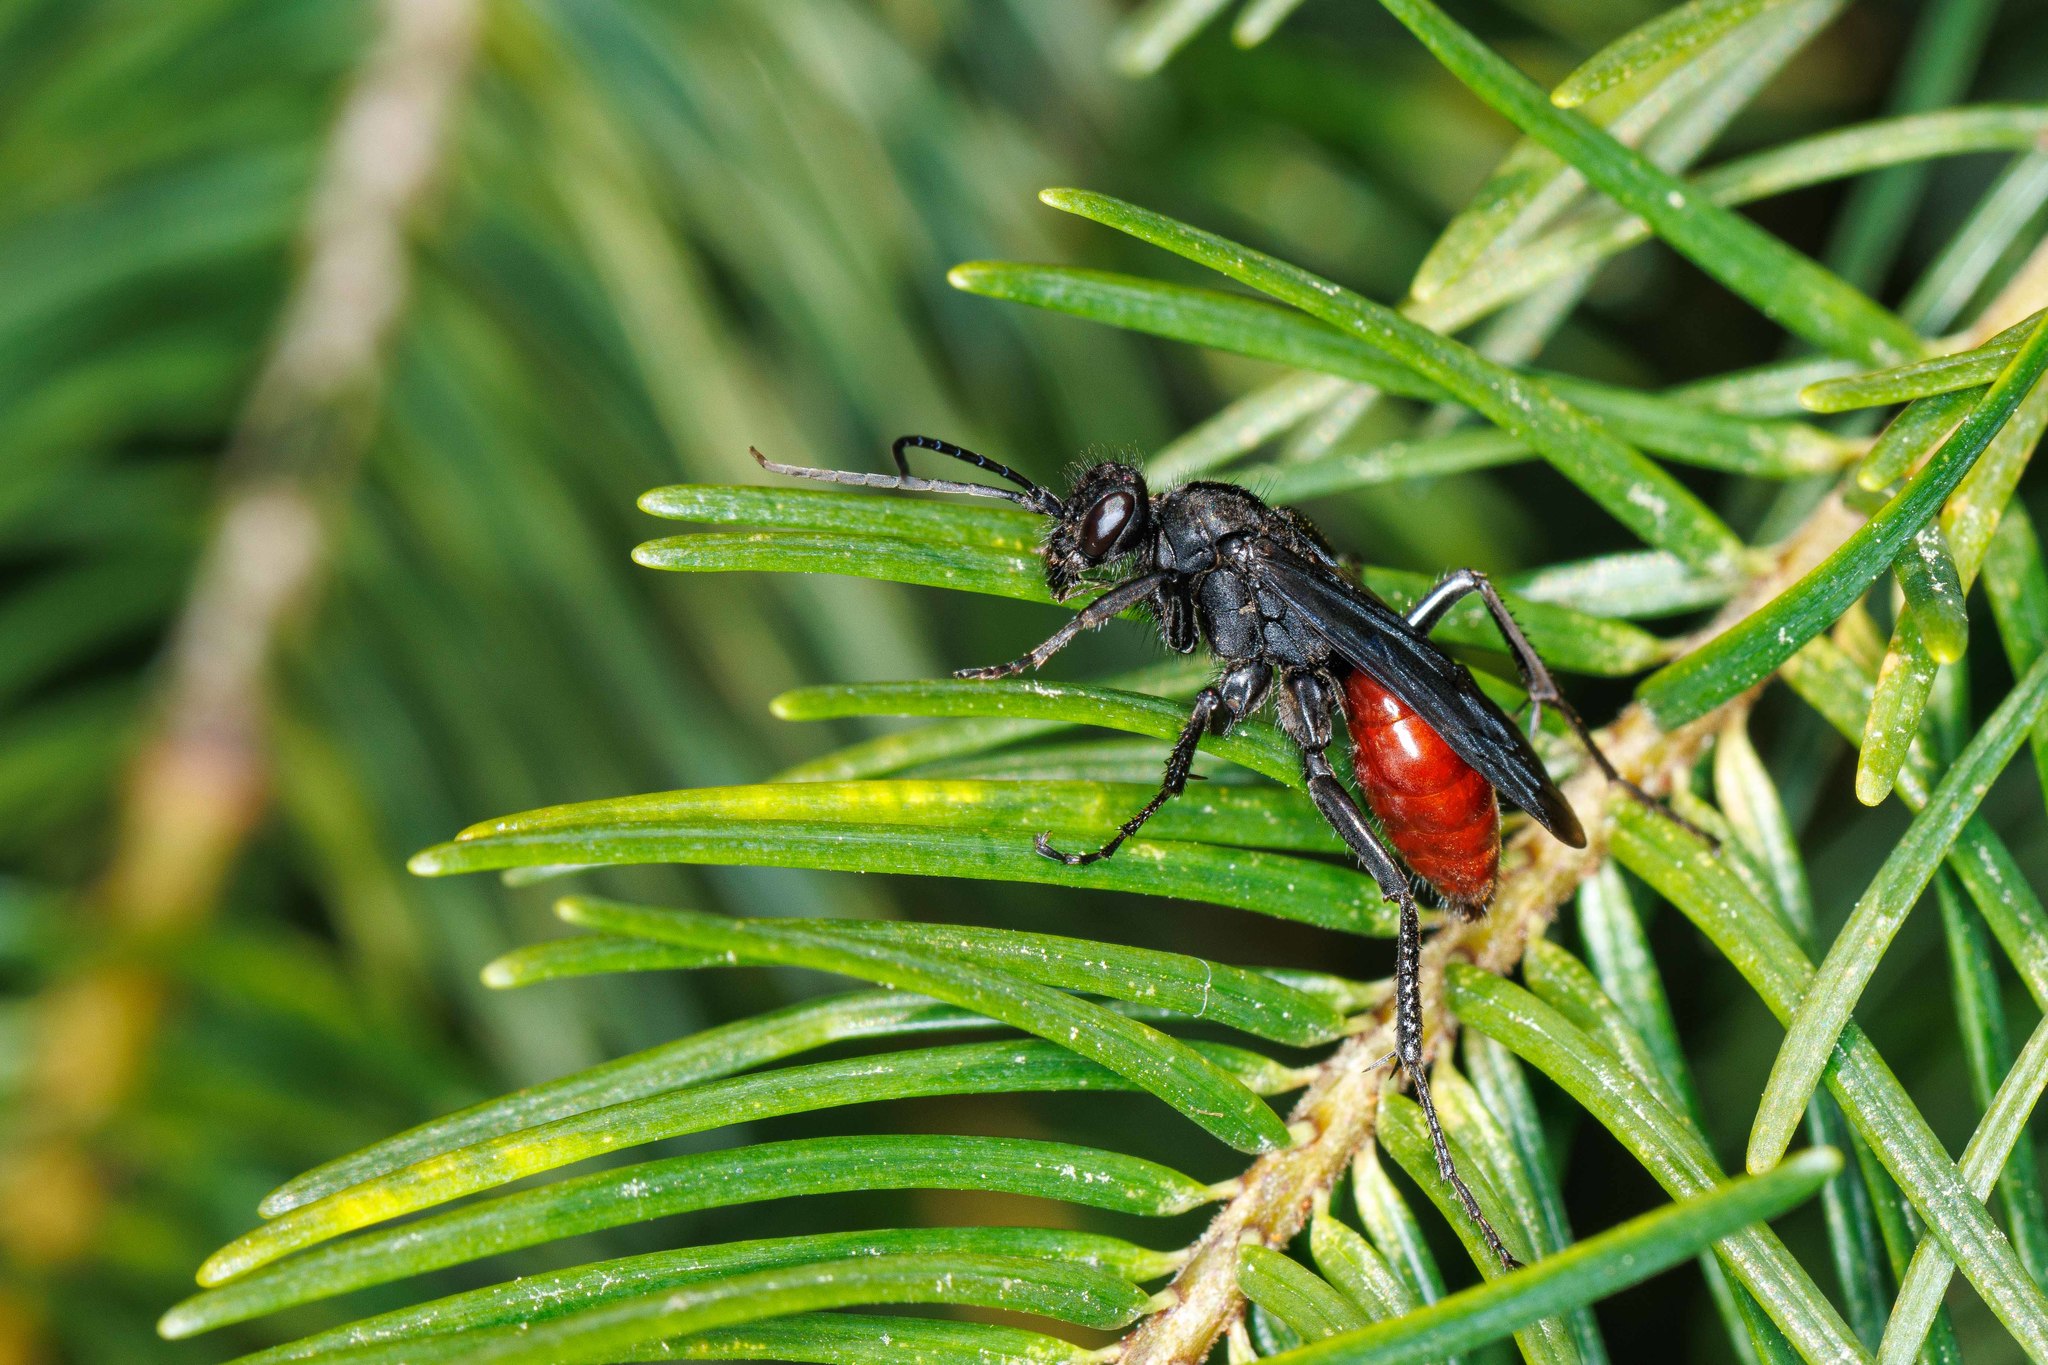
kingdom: Animalia
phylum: Arthropoda
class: Insecta
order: Hymenoptera
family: Pompilidae
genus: Priocnemis
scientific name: Priocnemis oregona
